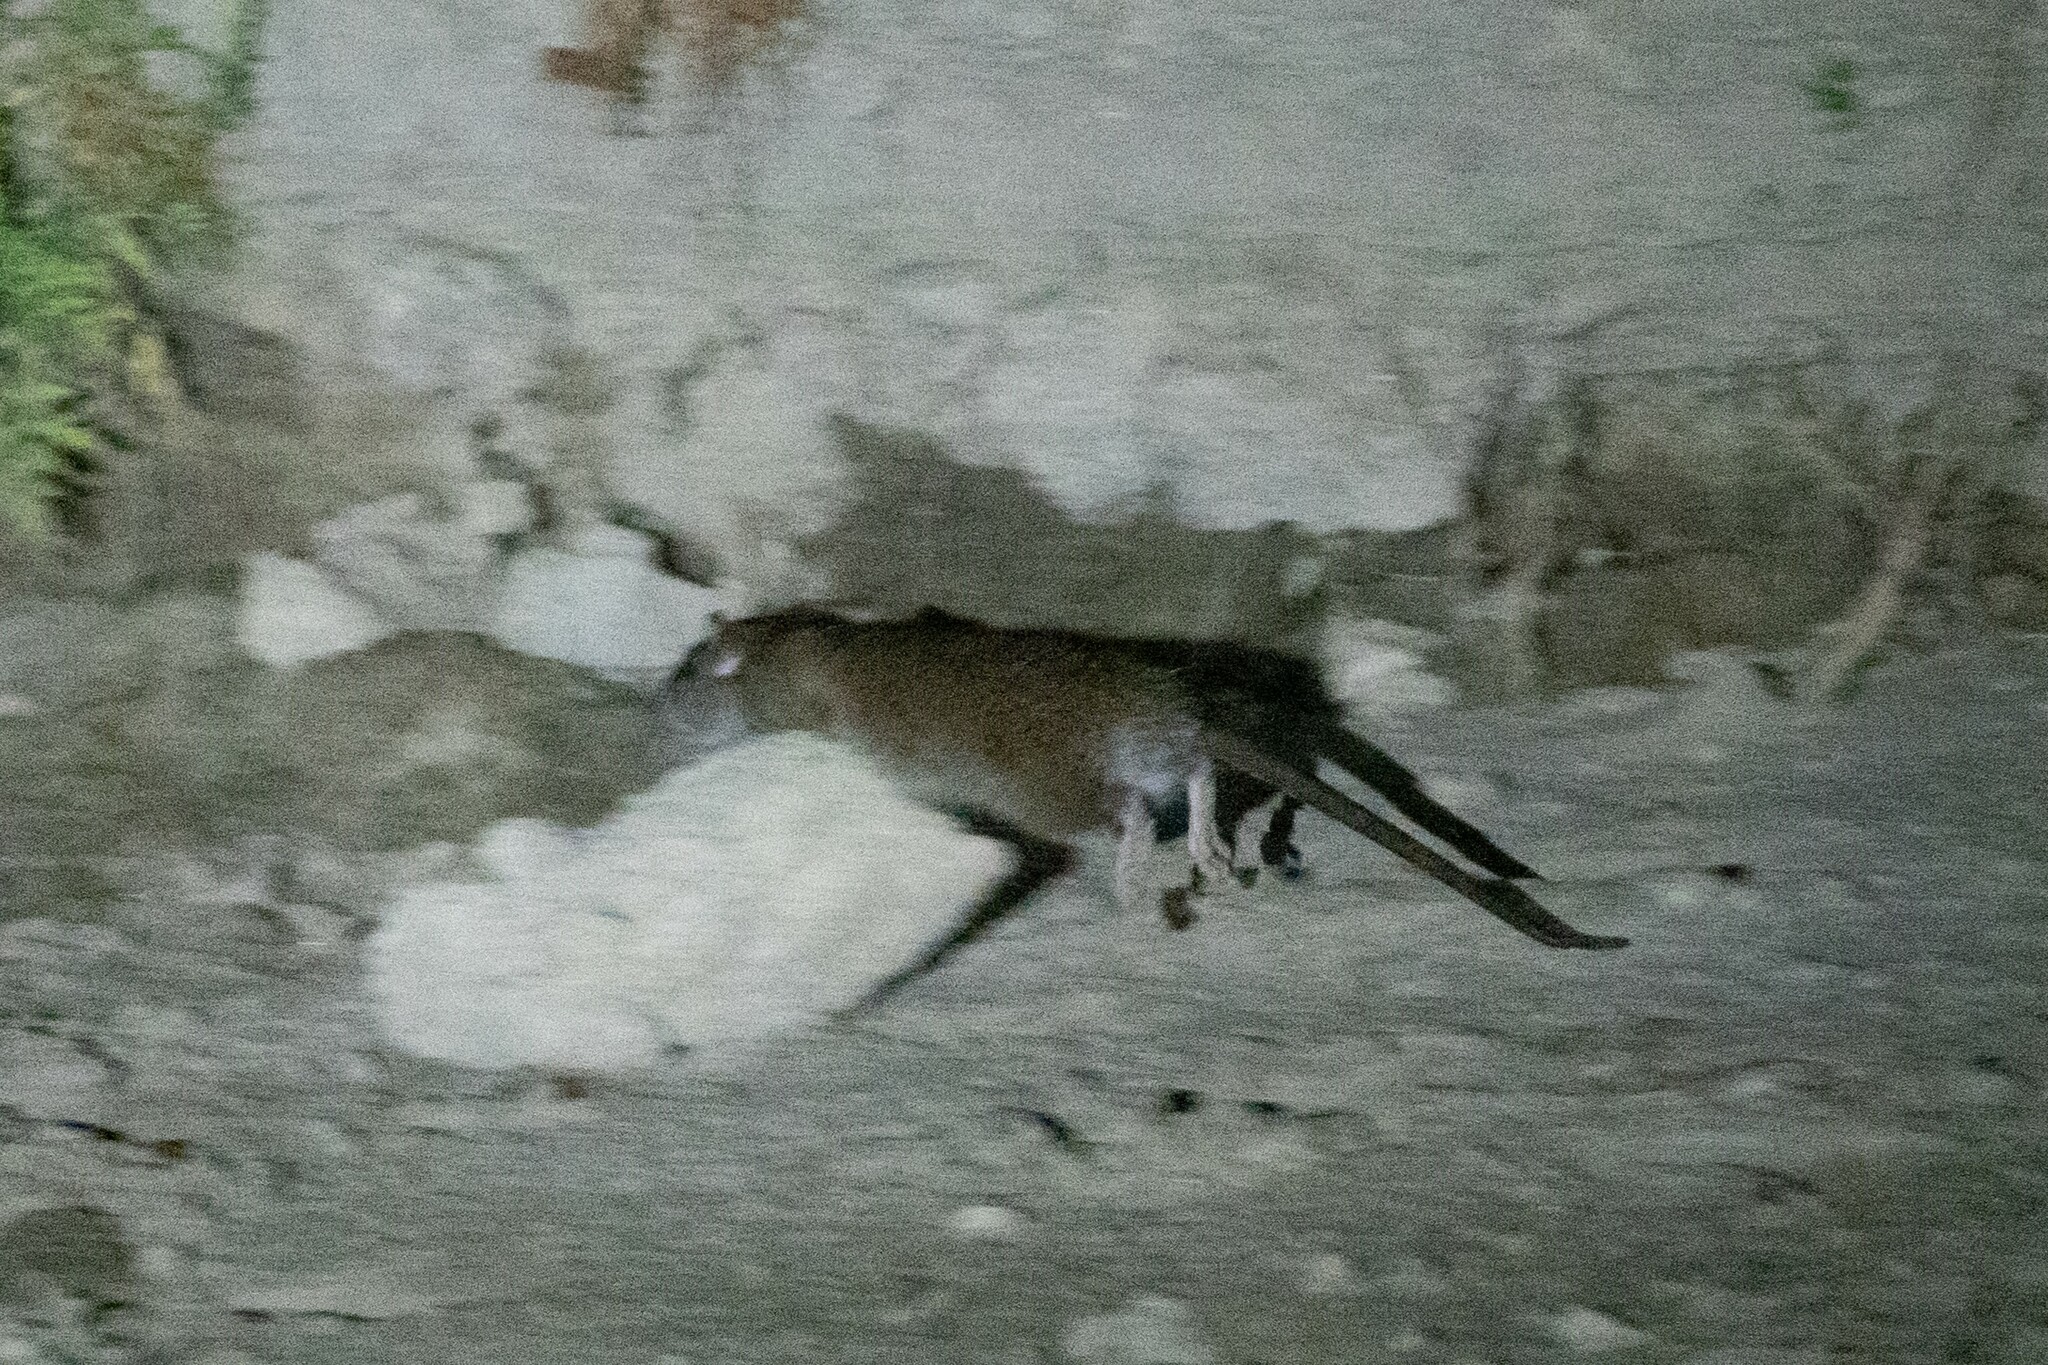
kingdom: Animalia
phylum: Chordata
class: Mammalia
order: Rodentia
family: Muridae
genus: Rattus
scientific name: Rattus norvegicus
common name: Brown rat
